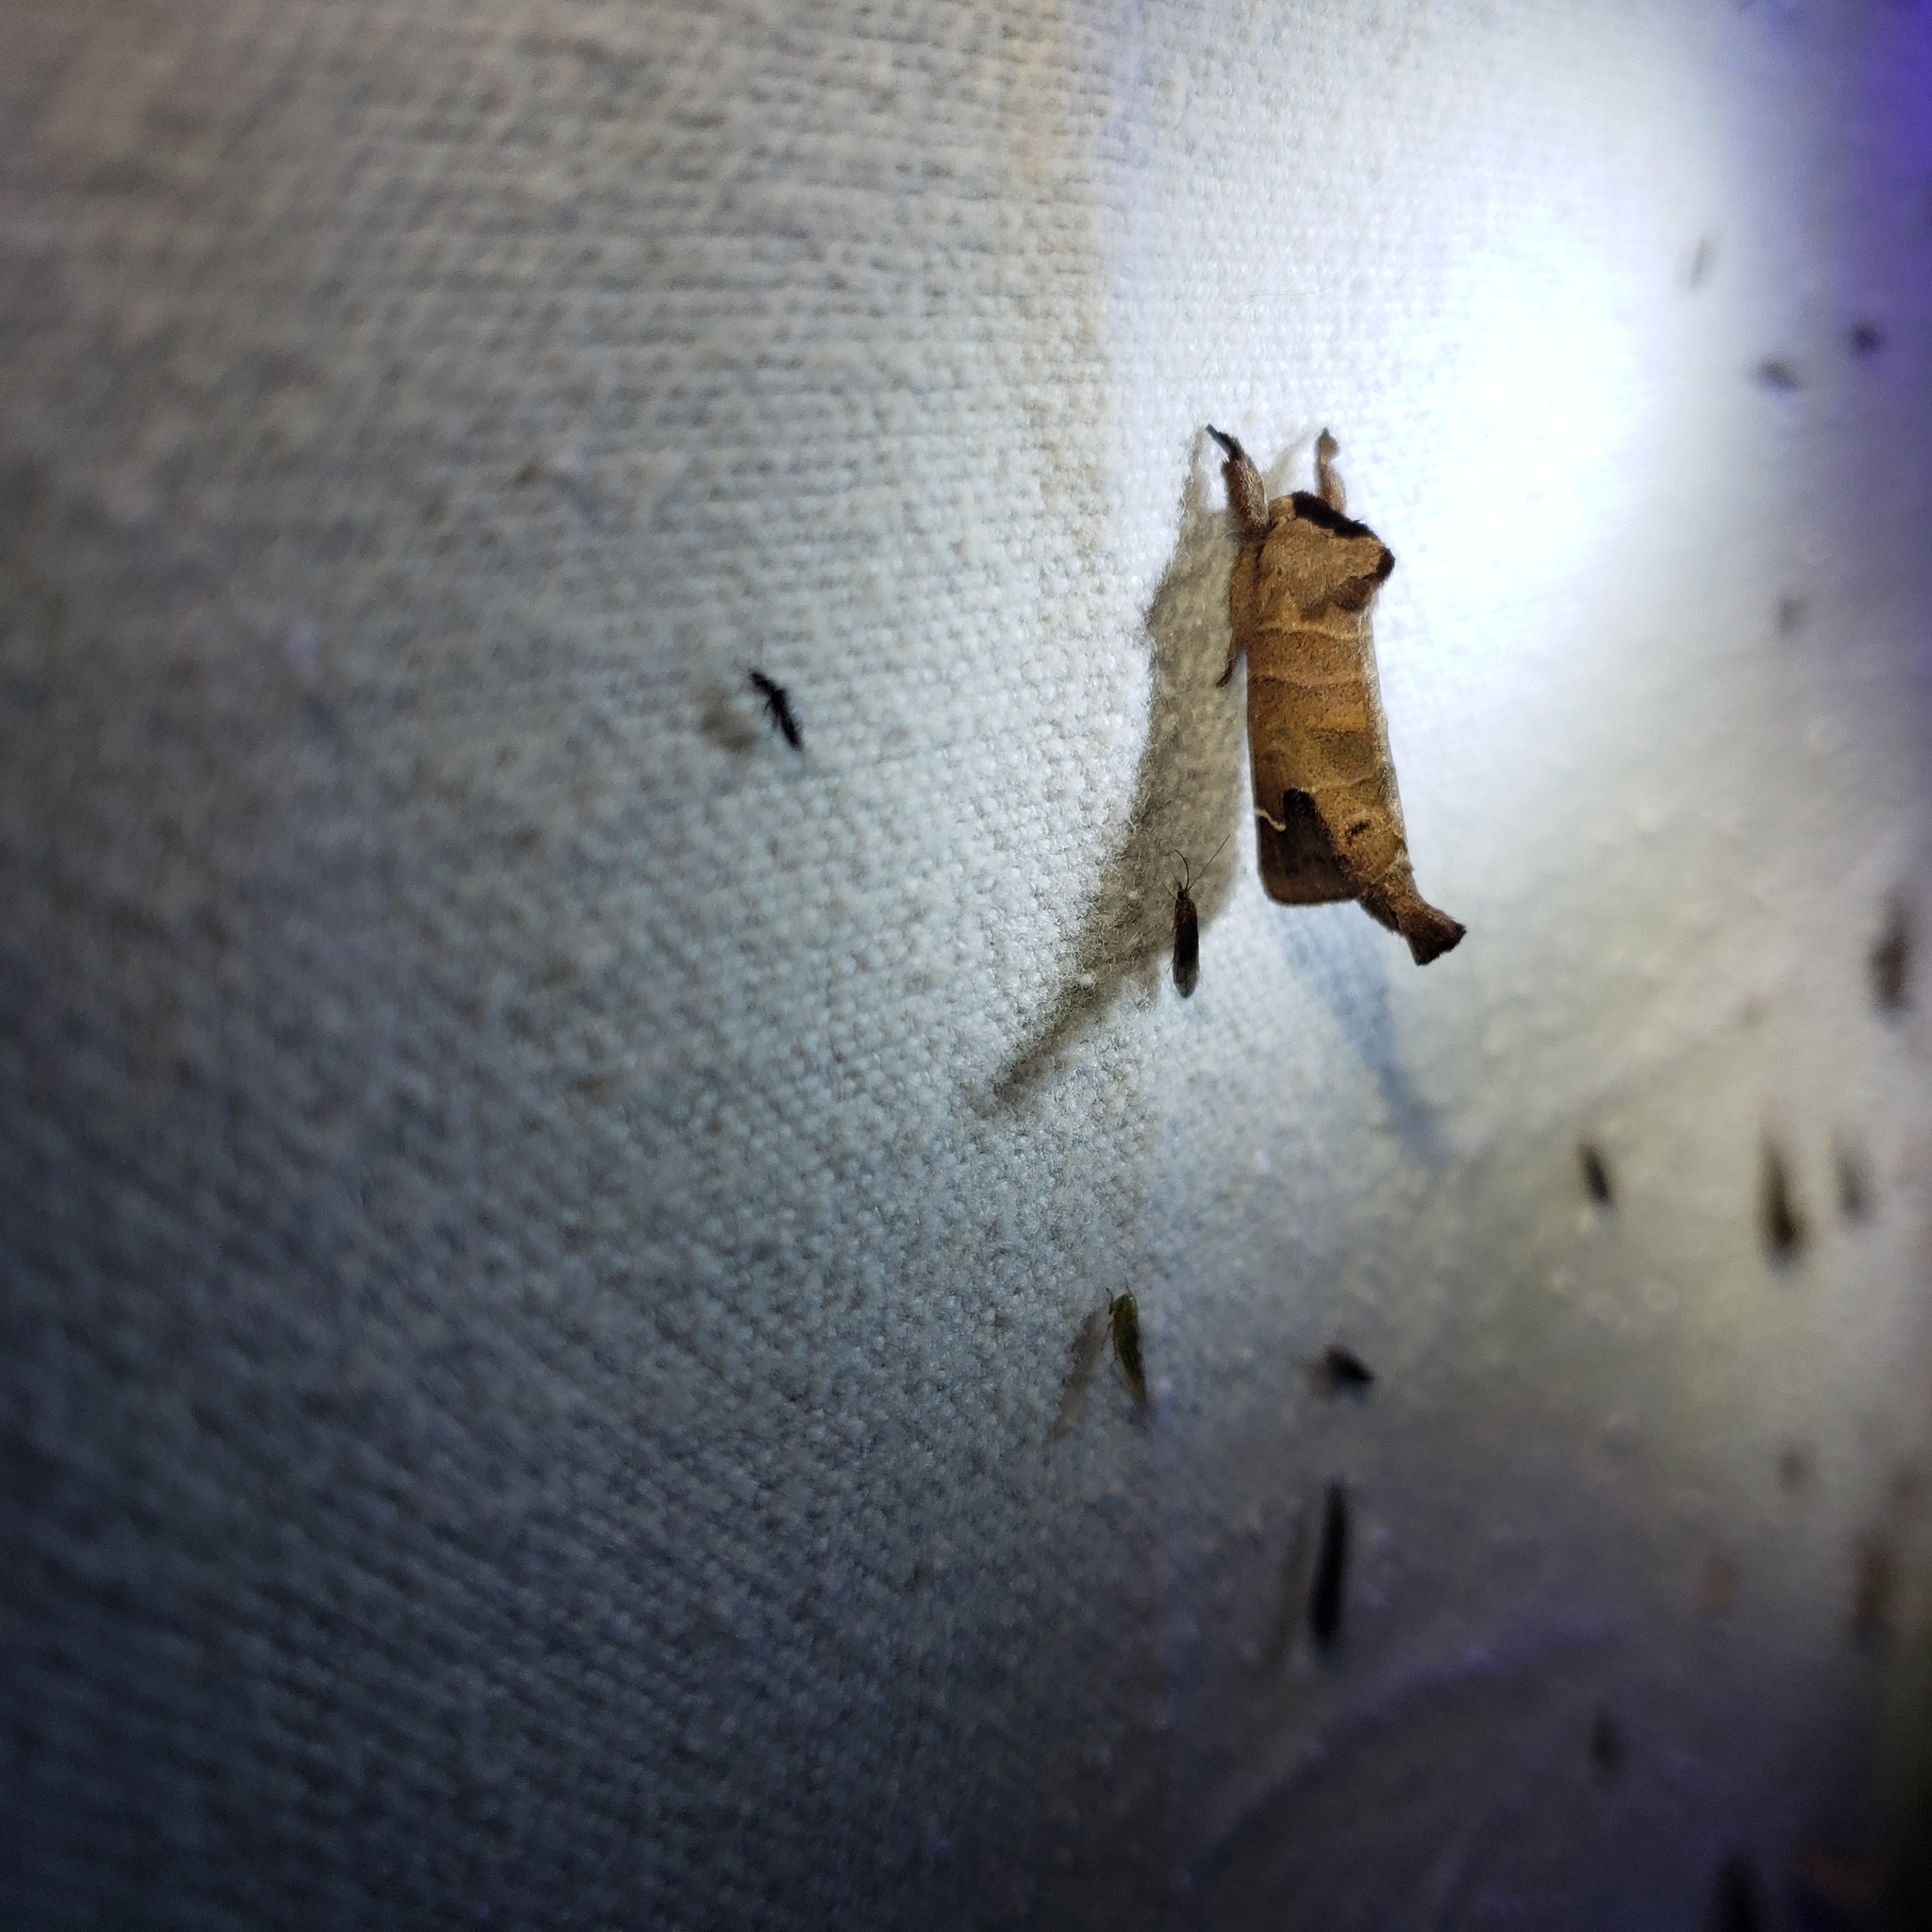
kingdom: Animalia
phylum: Arthropoda
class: Insecta
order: Lepidoptera
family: Notodontidae
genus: Clostera
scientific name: Clostera albosigma
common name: Sigmoid prominent
